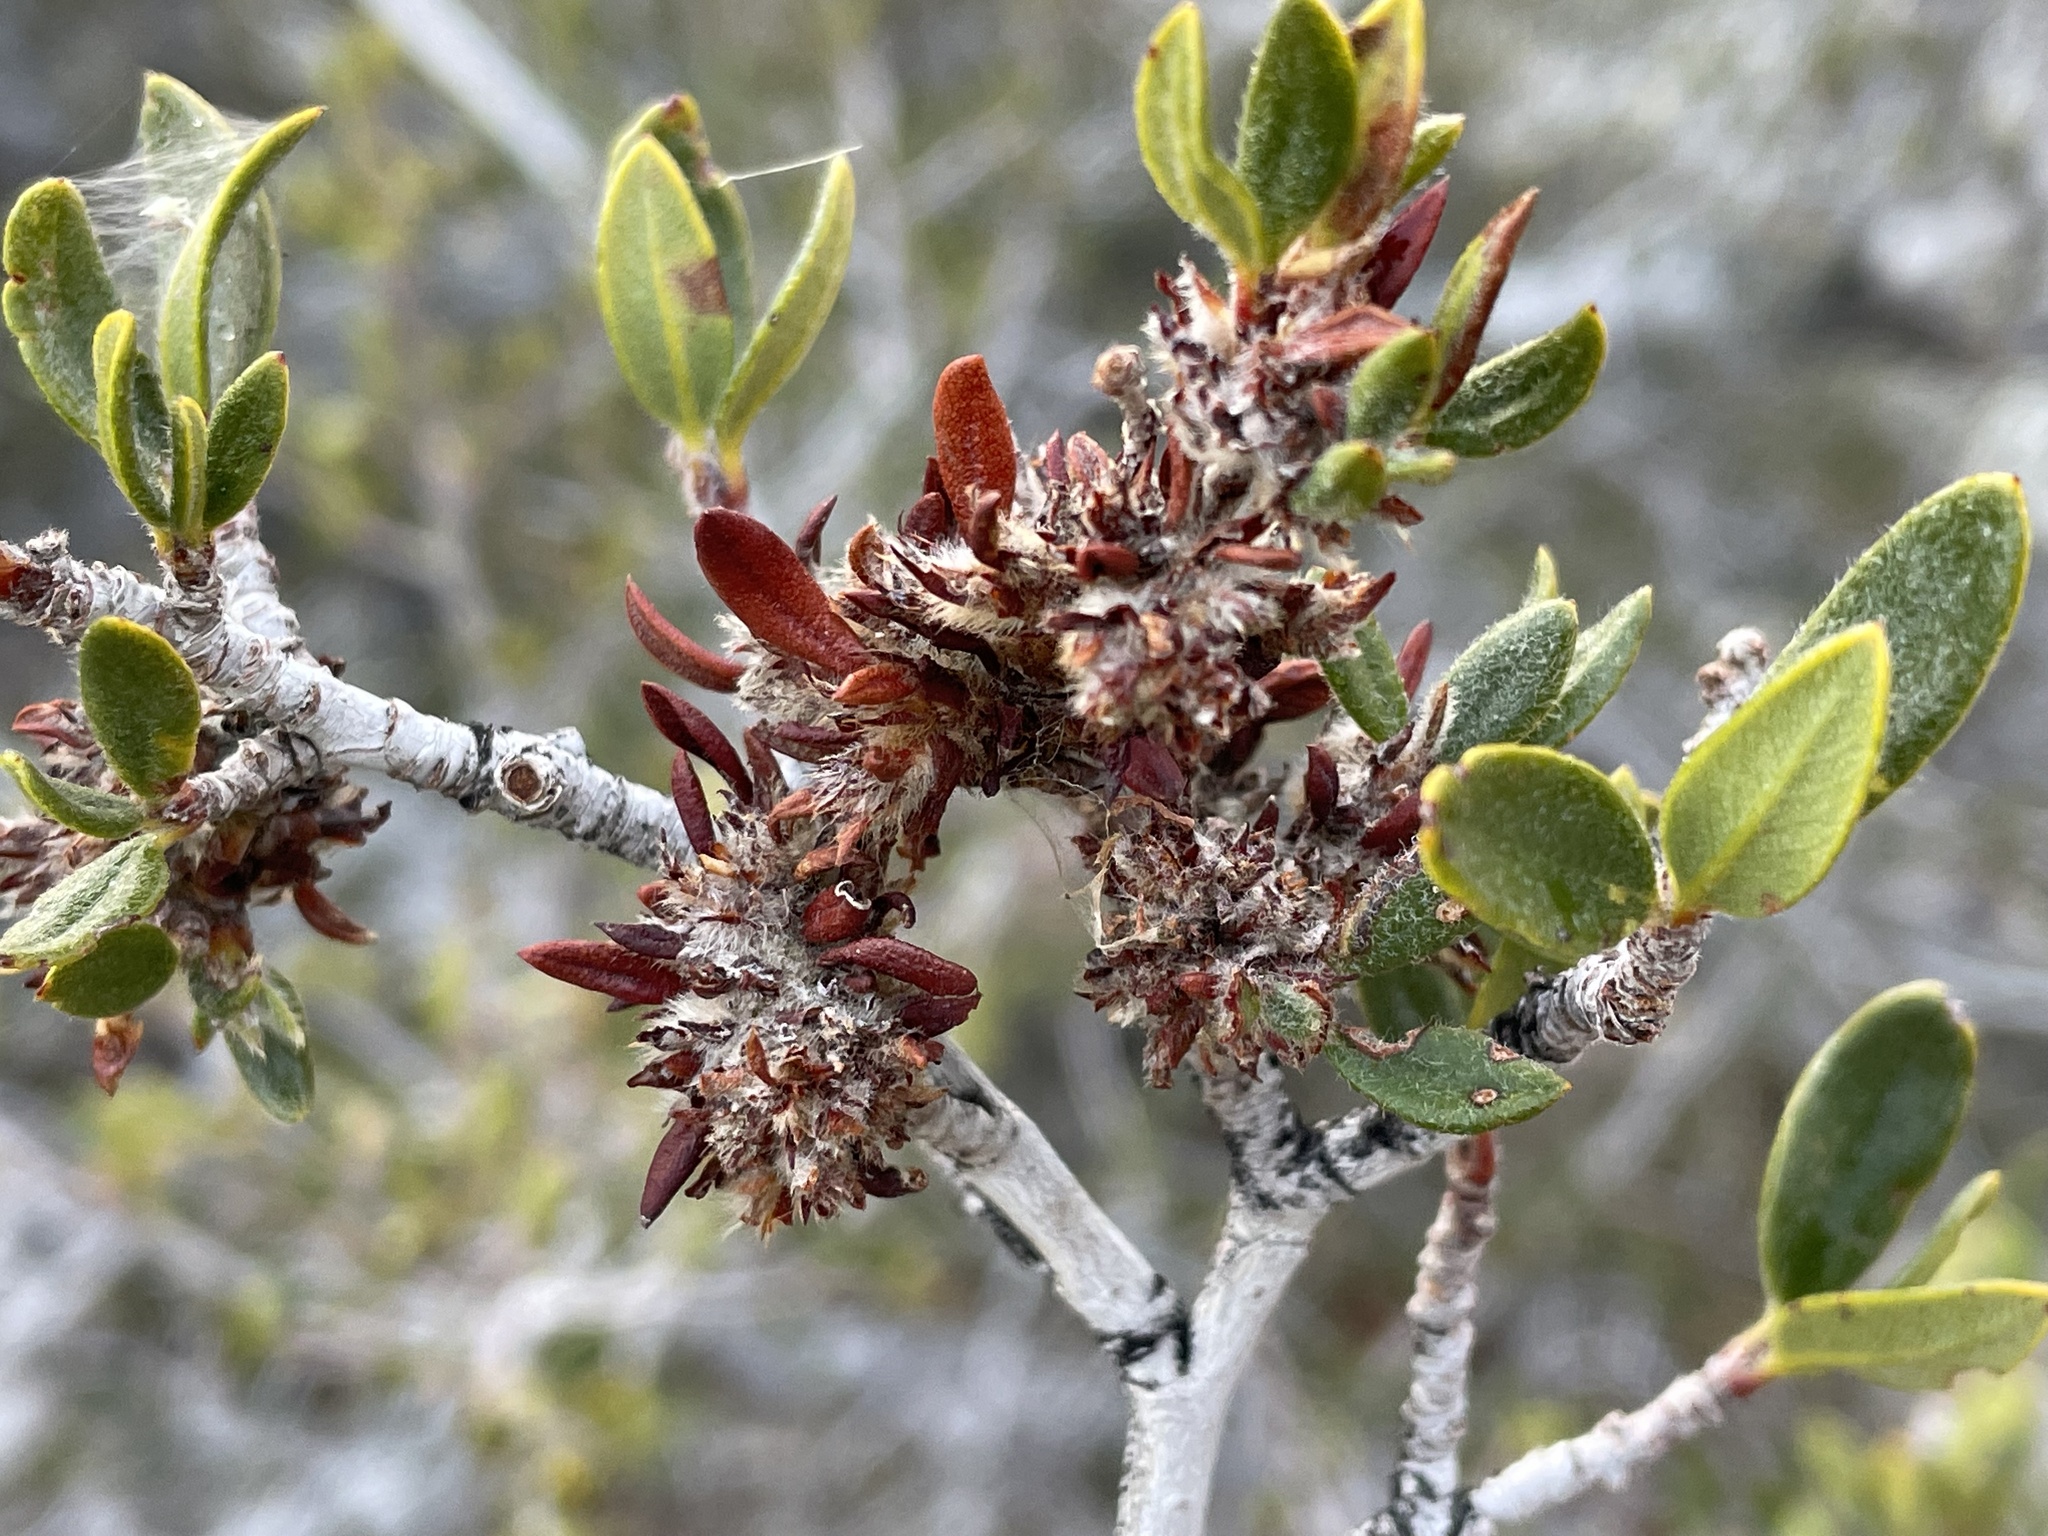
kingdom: Plantae
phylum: Tracheophyta
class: Magnoliopsida
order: Rosales
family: Rosaceae
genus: Cercocarpus
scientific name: Cercocarpus ledifolius
